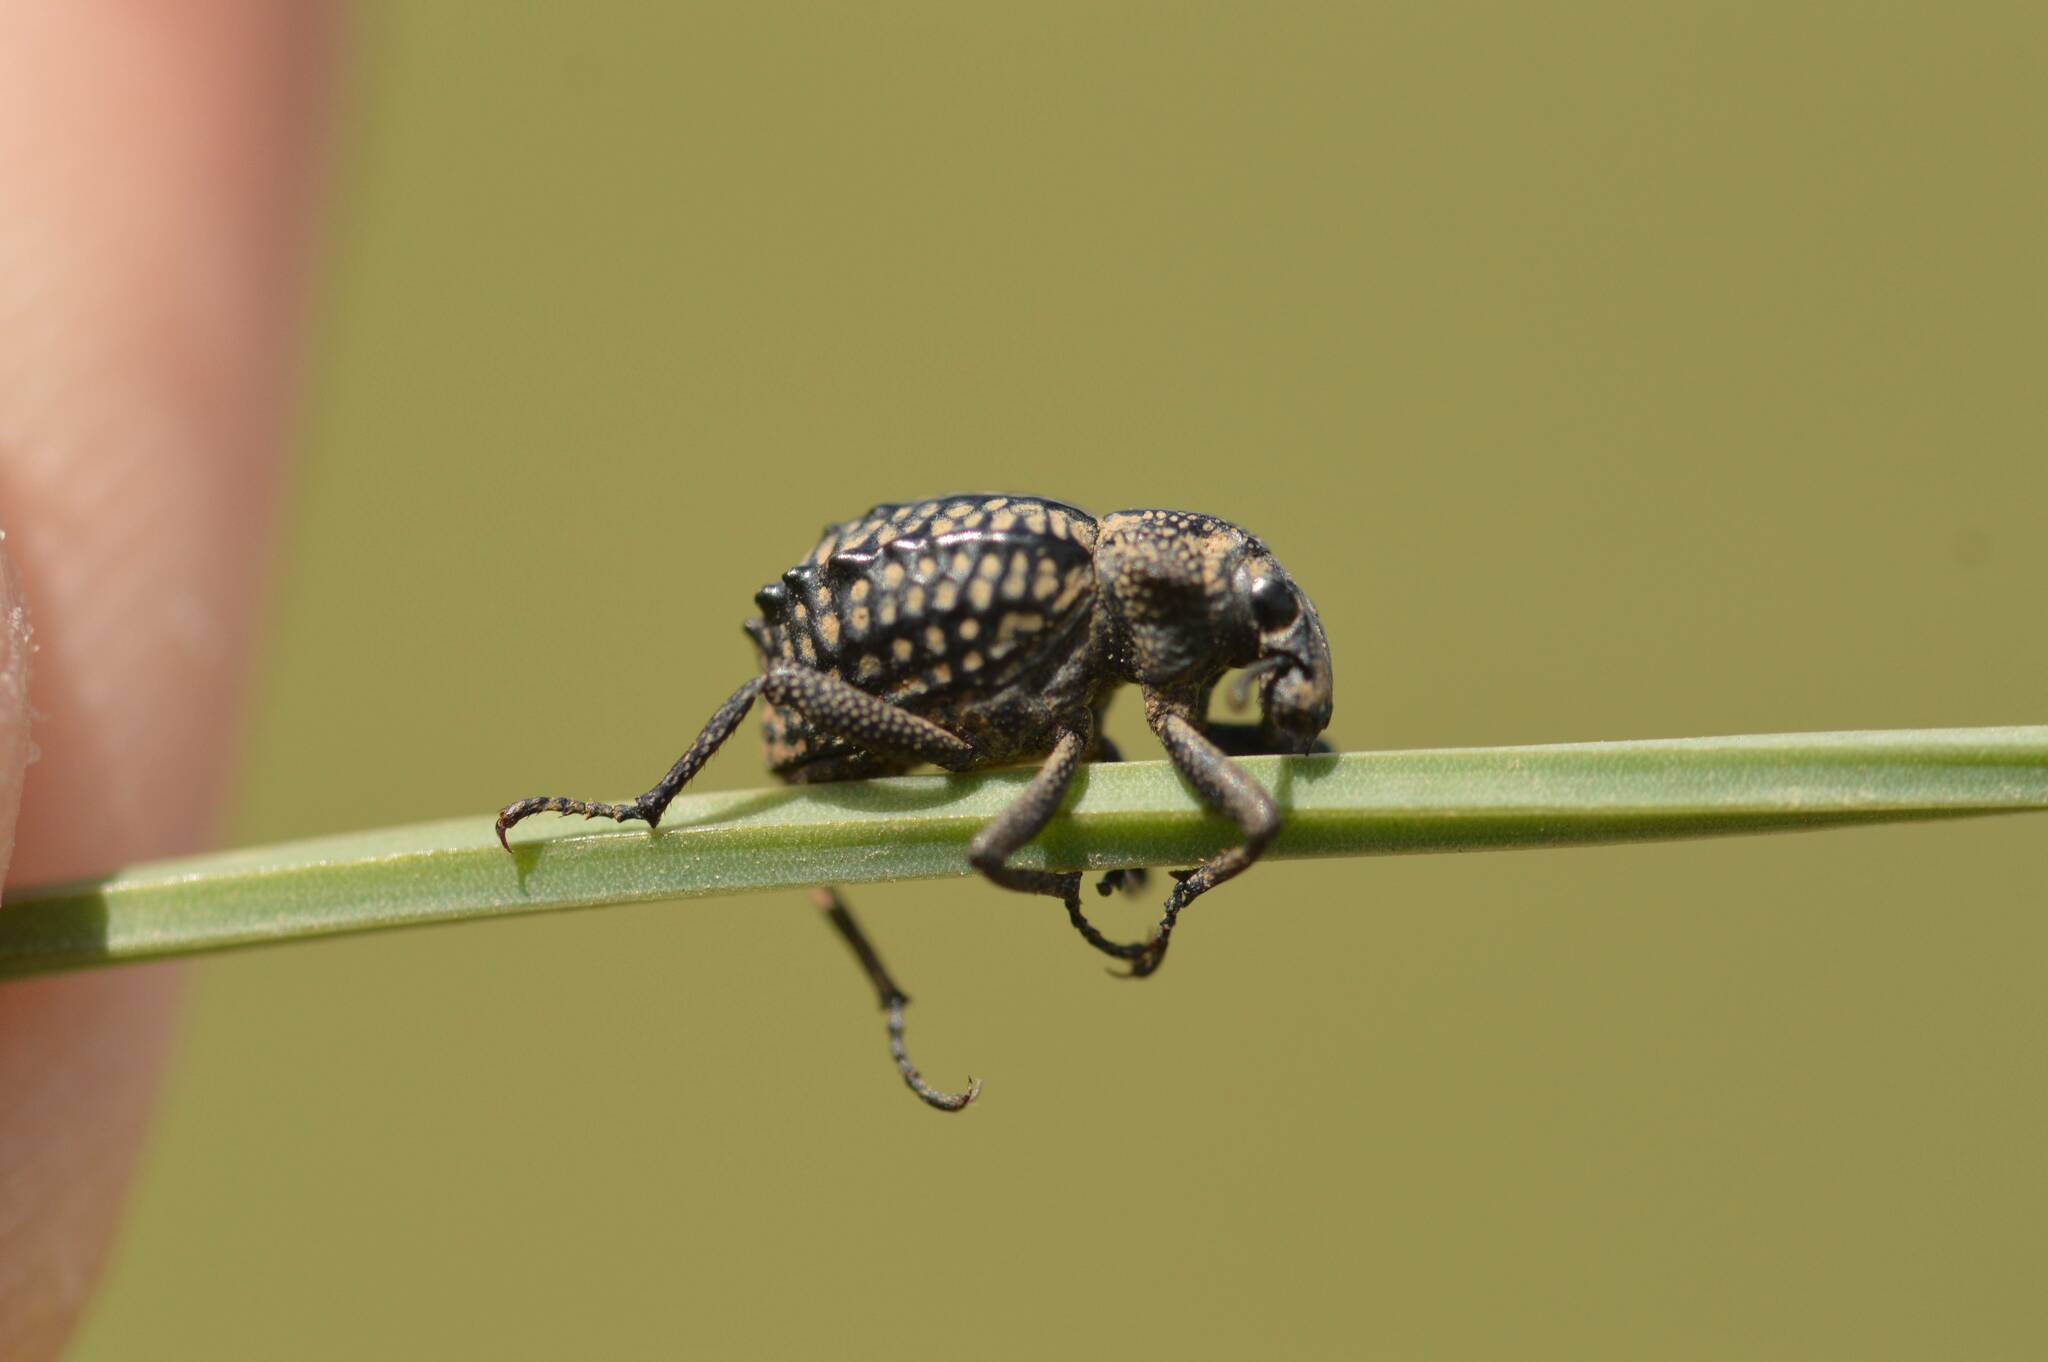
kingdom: Animalia
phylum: Arthropoda
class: Insecta
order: Coleoptera
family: Brachyceridae
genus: Brachycerus
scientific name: Brachycerus undatus
